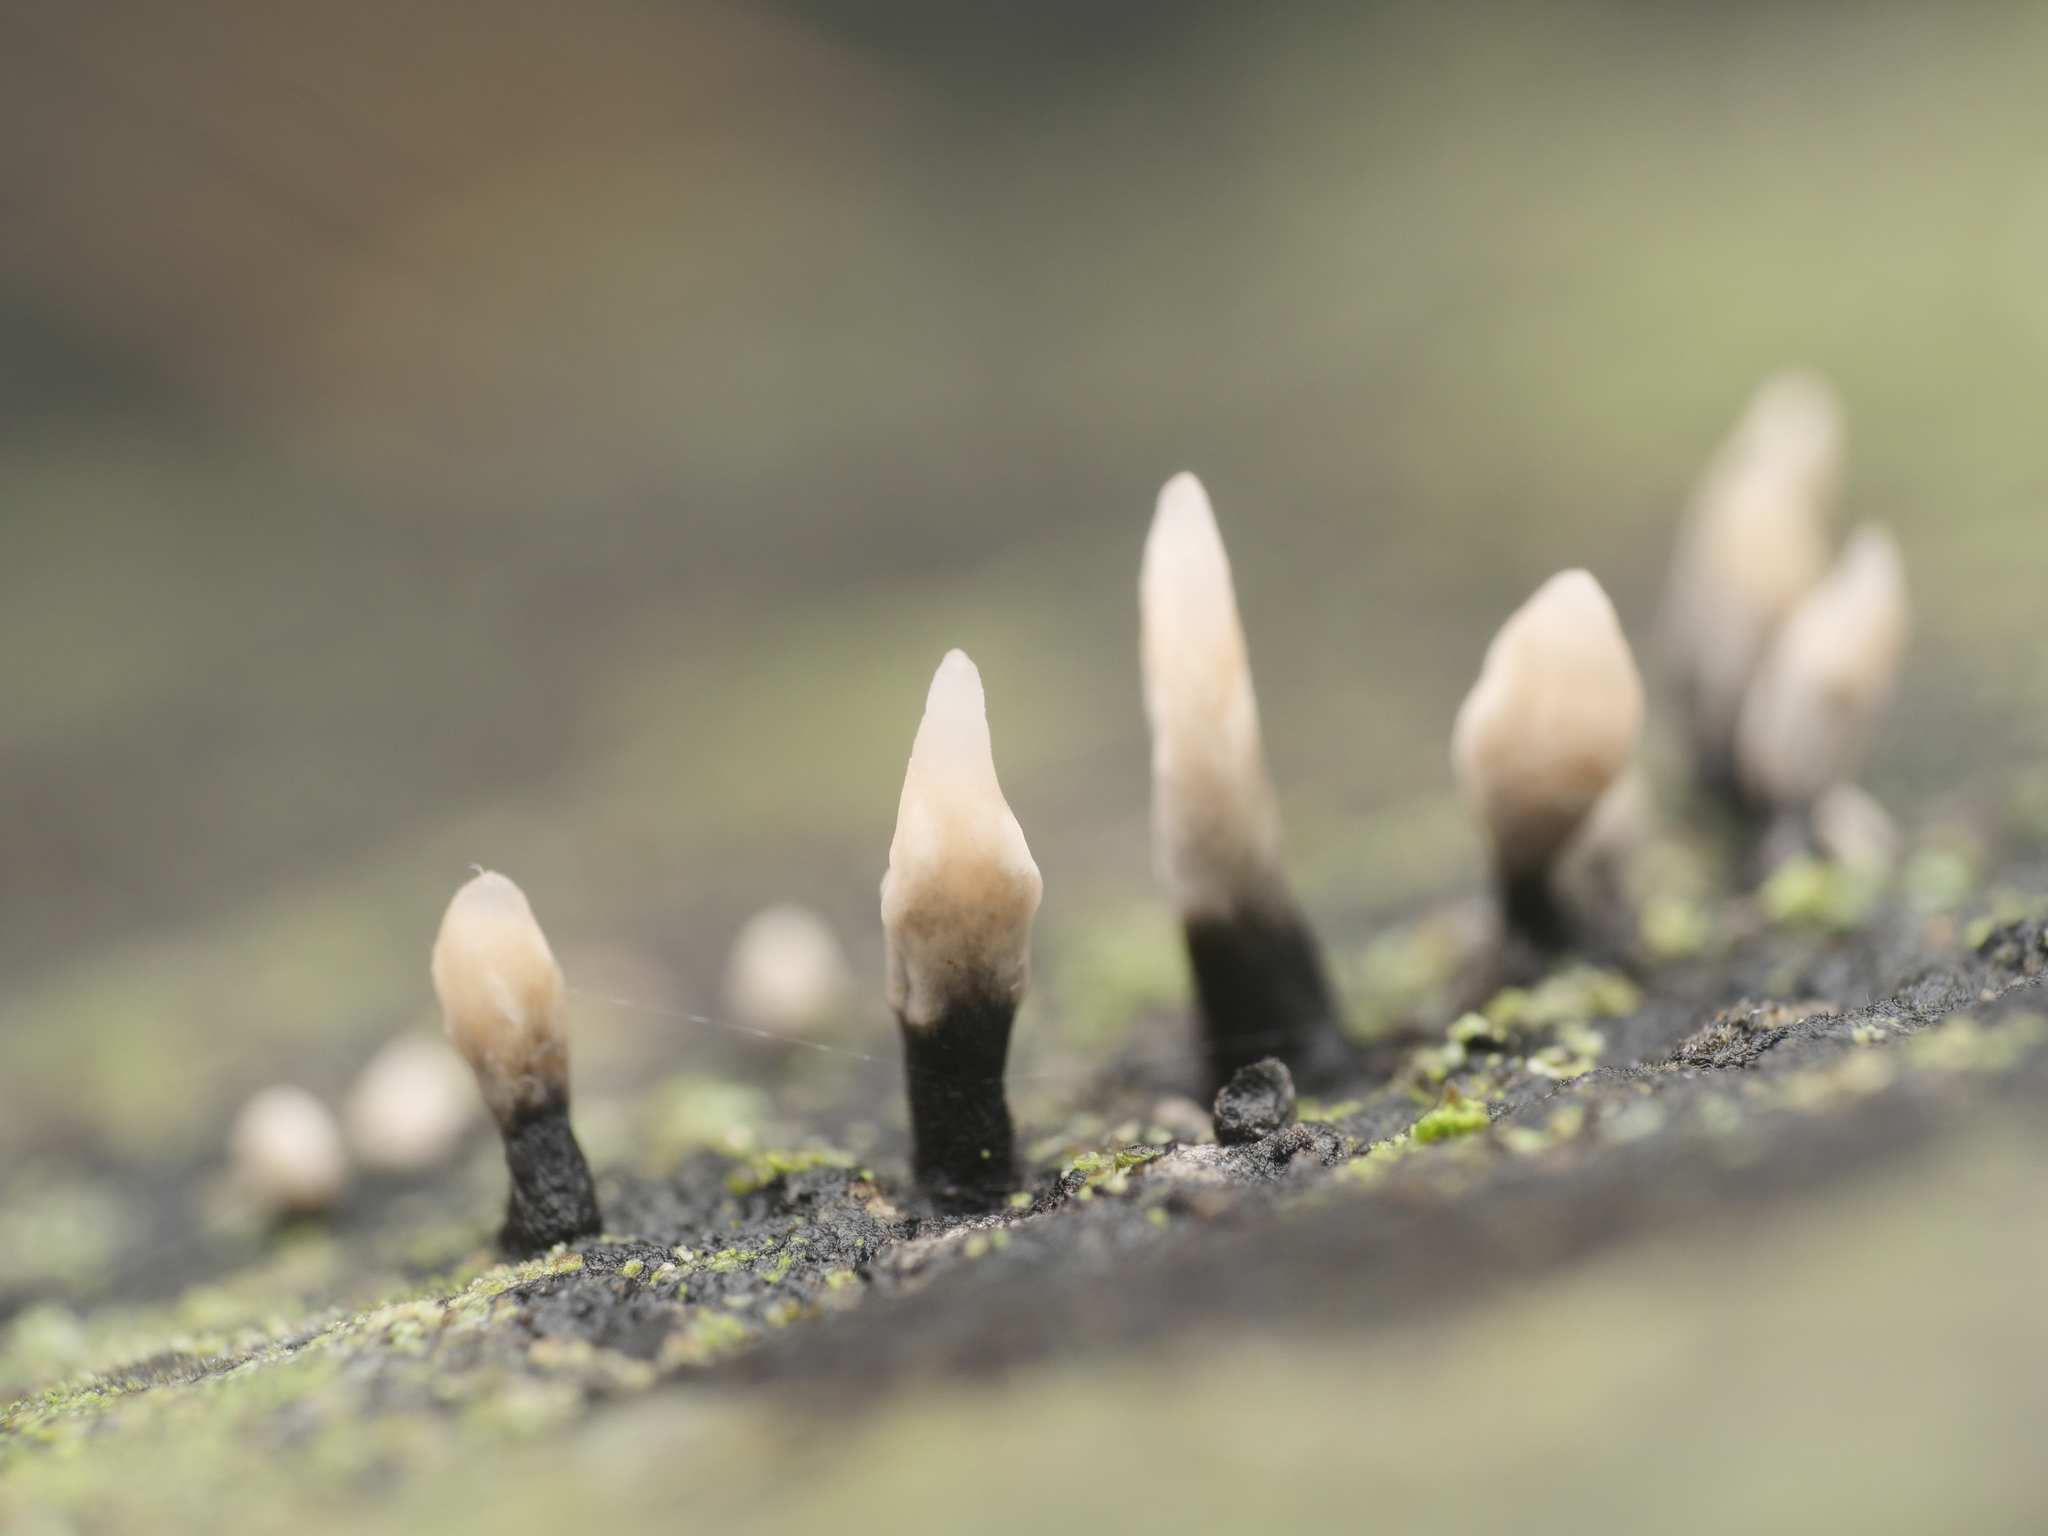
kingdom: Fungi
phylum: Ascomycota
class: Sordariomycetes
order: Xylariales
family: Xylariaceae
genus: Xylaria
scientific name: Xylaria hypoxylon
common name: Candle-snuff fungus
